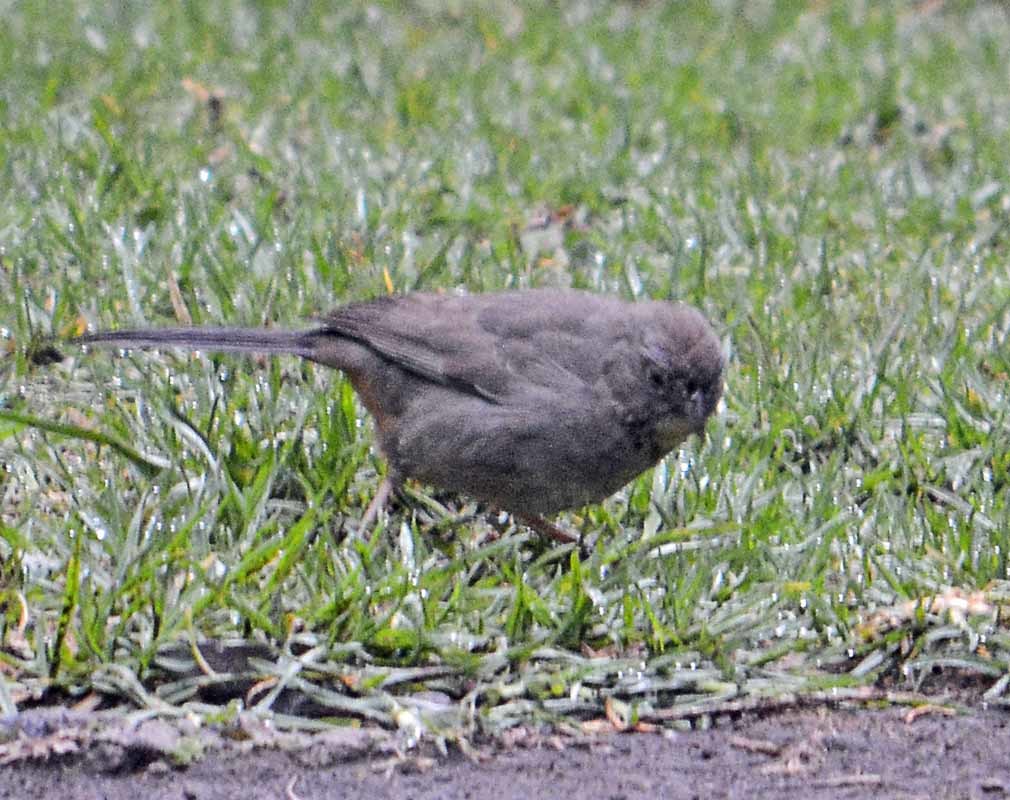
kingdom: Animalia
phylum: Chordata
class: Aves
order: Passeriformes
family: Passerellidae
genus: Melozone
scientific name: Melozone fusca
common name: Canyon towhee
